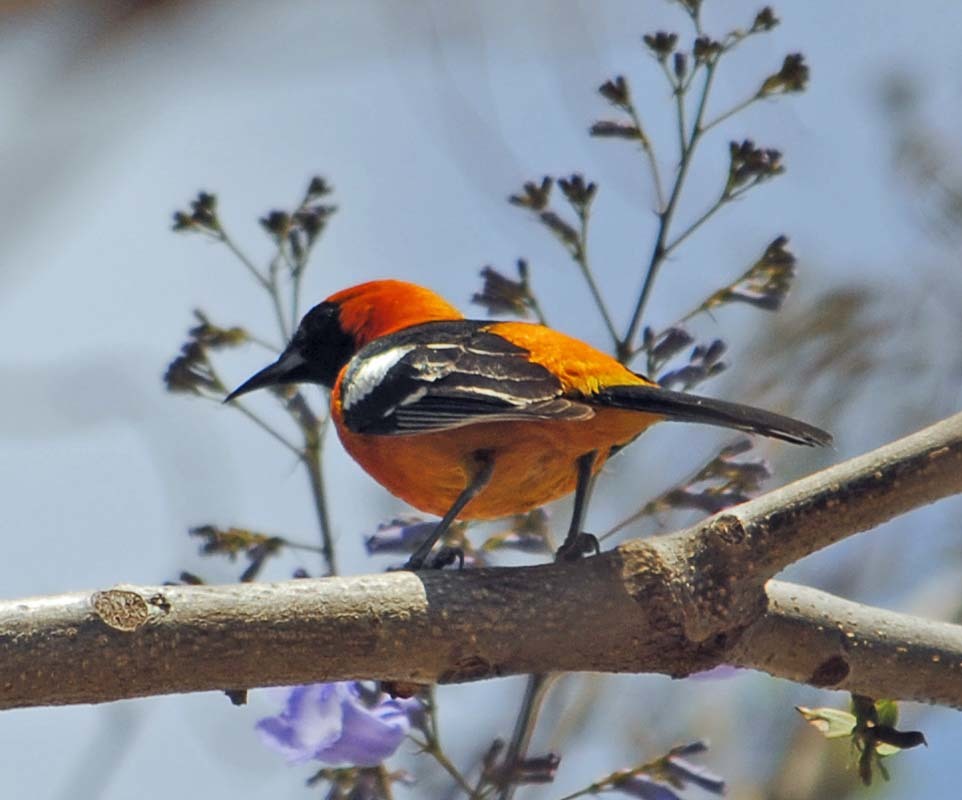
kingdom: Animalia
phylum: Chordata
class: Aves
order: Passeriformes
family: Icteridae
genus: Icterus
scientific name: Icterus cucullatus
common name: Hooded oriole
